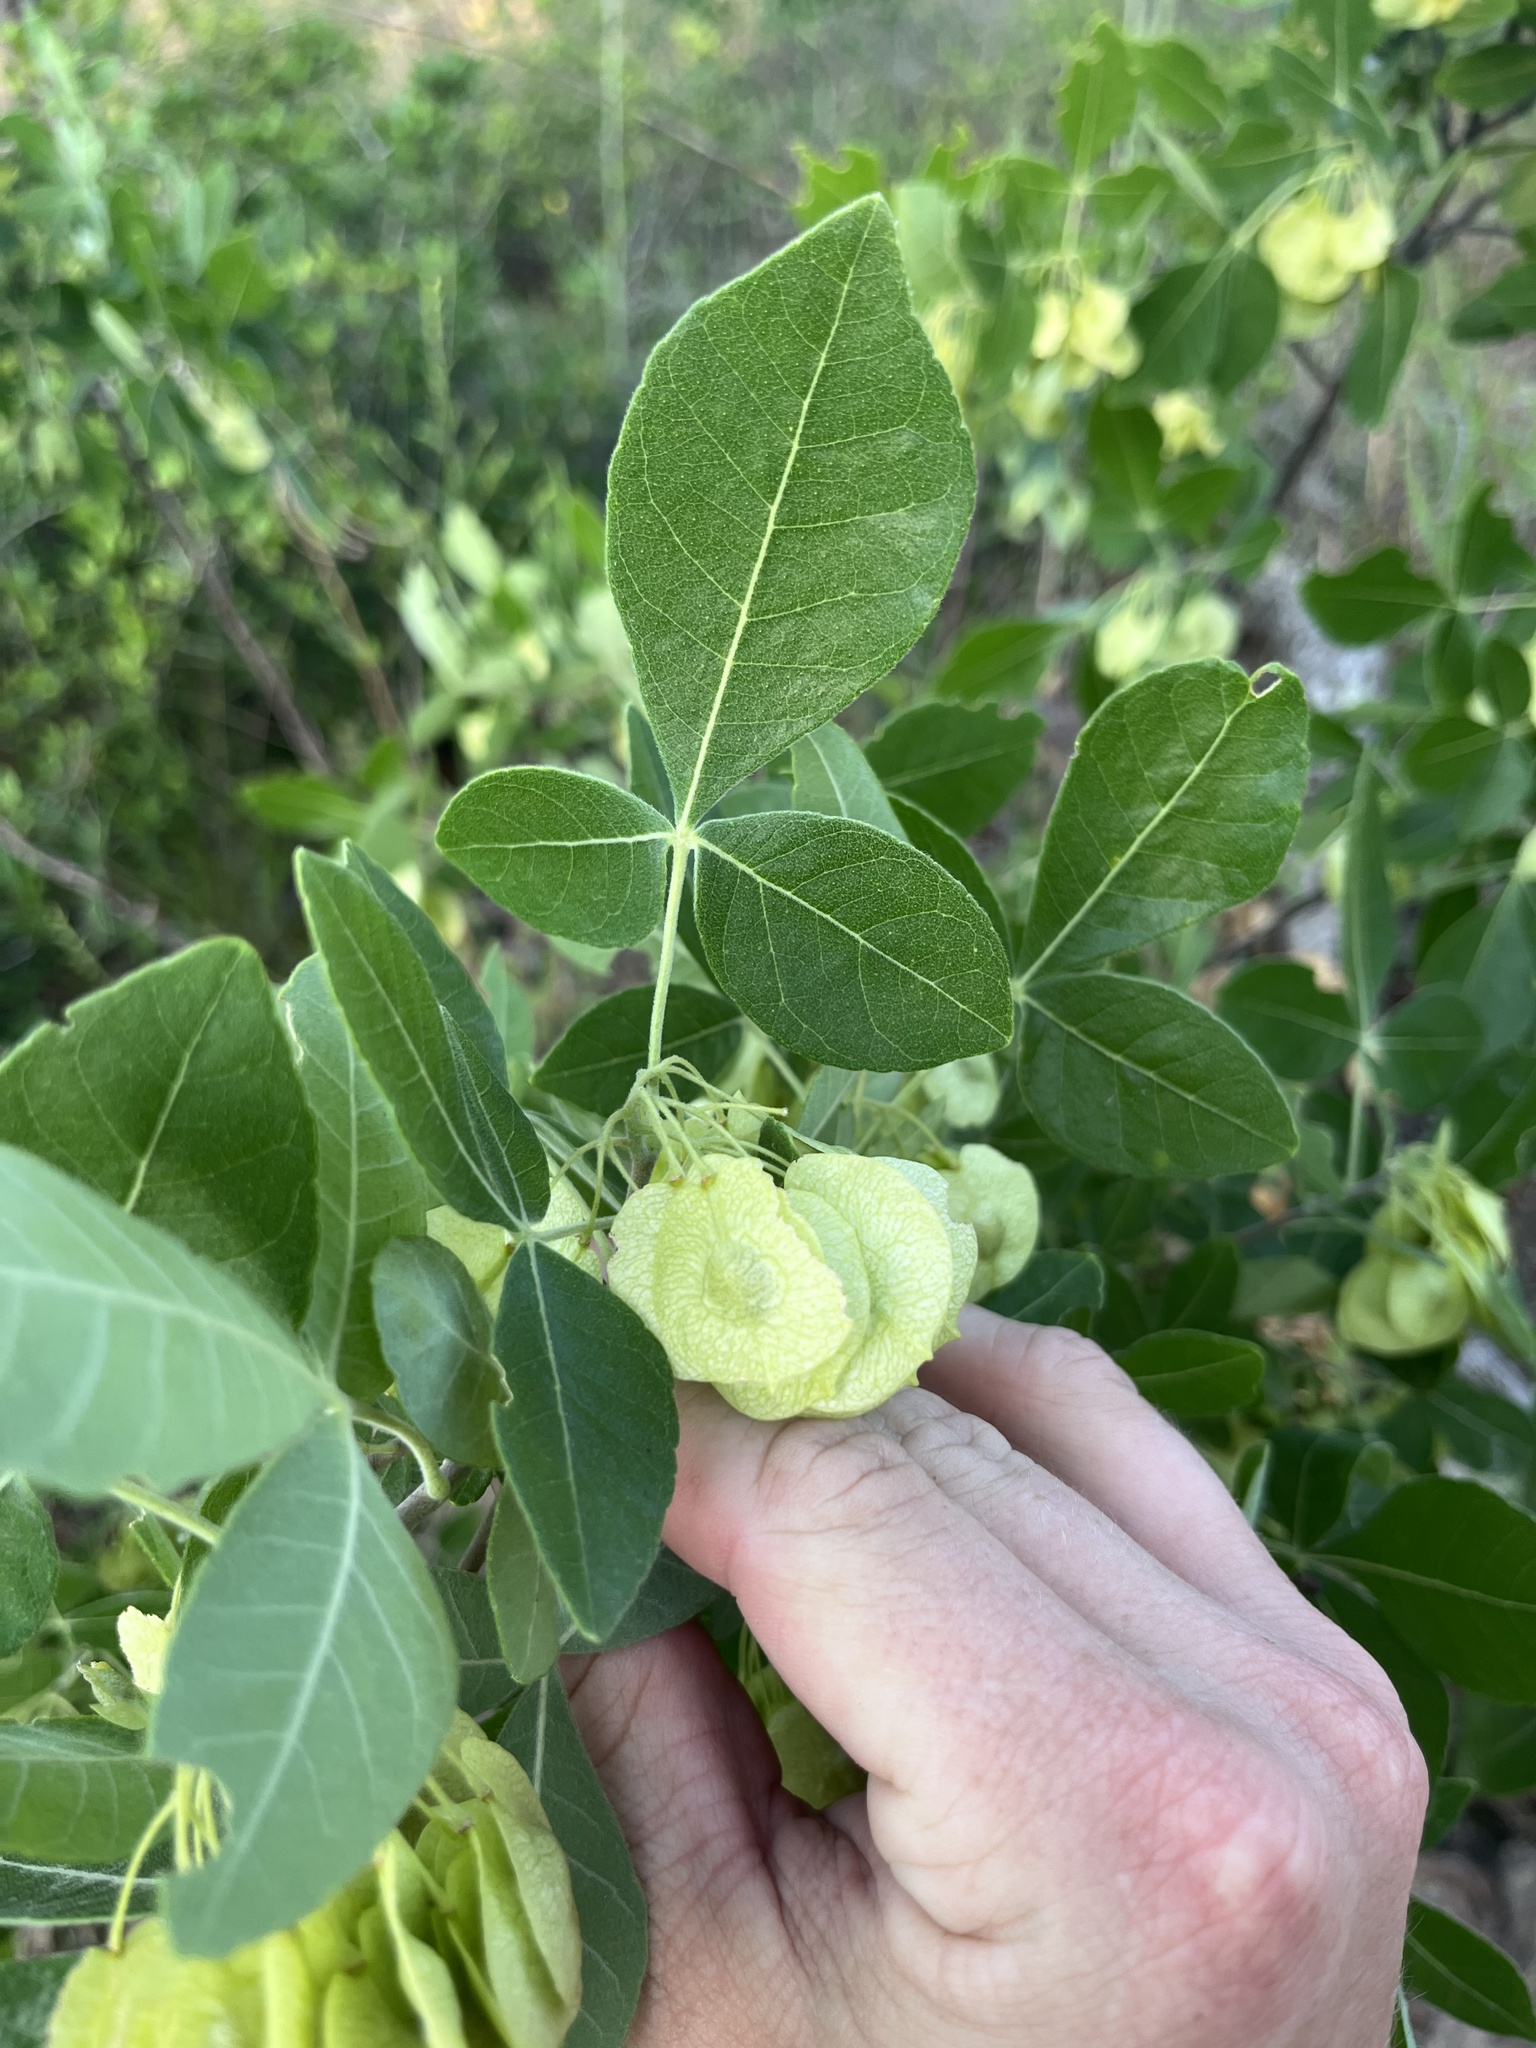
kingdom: Plantae
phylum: Tracheophyta
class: Magnoliopsida
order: Sapindales
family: Rutaceae
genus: Ptelea
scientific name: Ptelea trifoliata
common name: Common hop-tree
